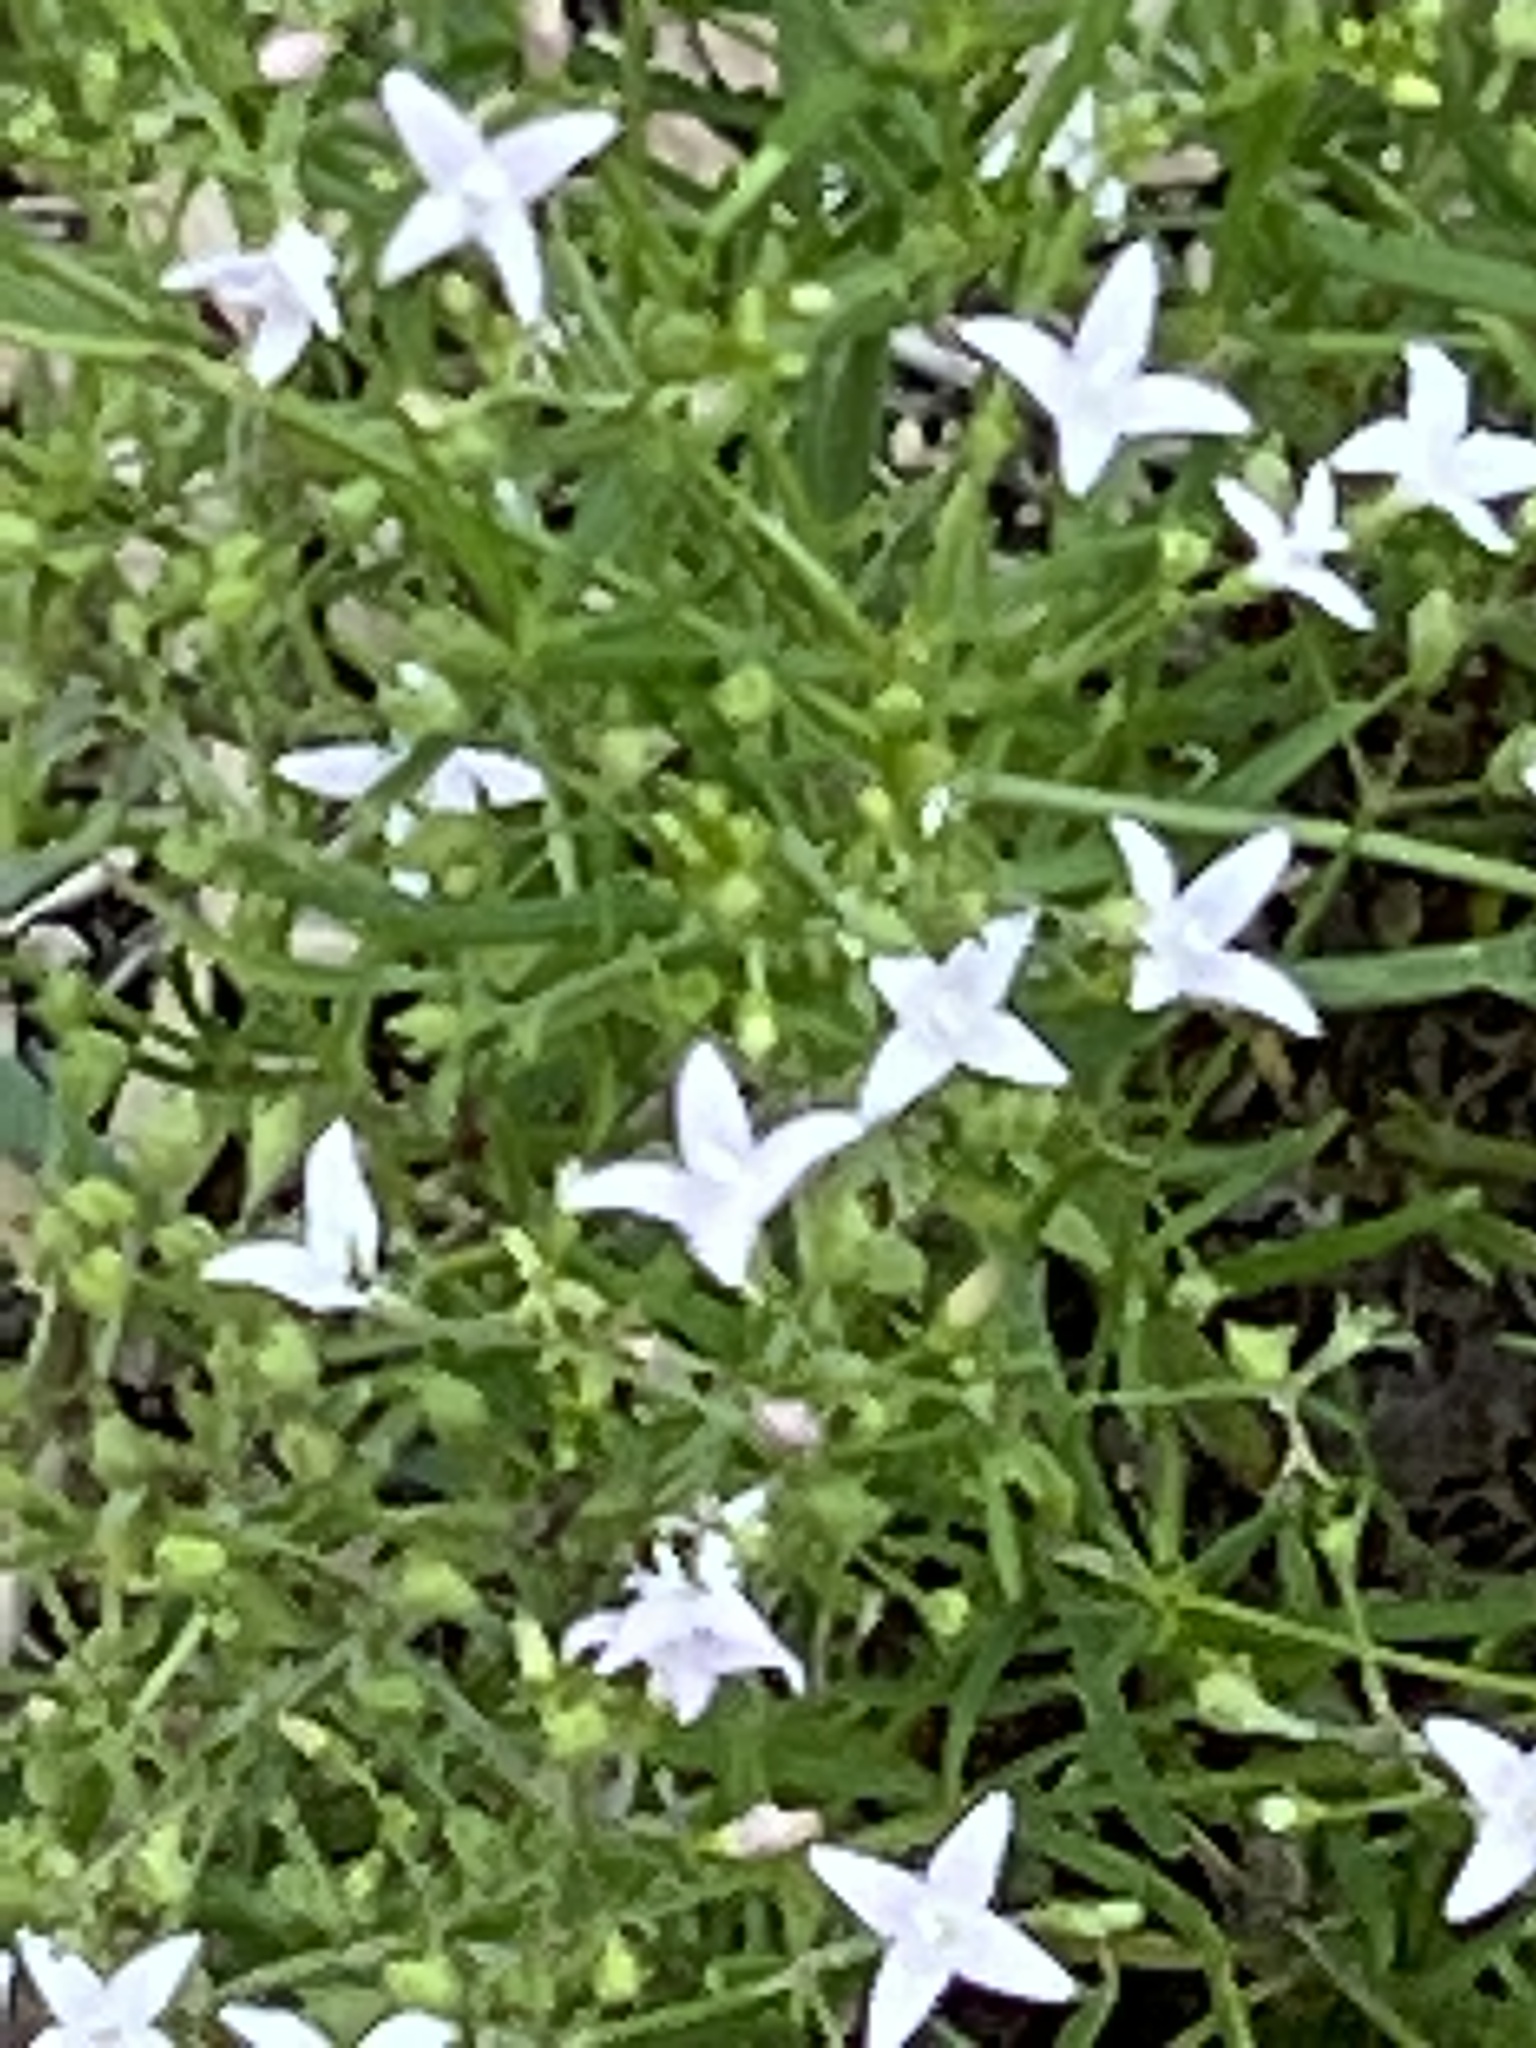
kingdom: Plantae
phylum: Tracheophyta
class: Magnoliopsida
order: Gentianales
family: Rubiaceae
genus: Stenaria
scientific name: Stenaria nigricans
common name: Diamondflowers
